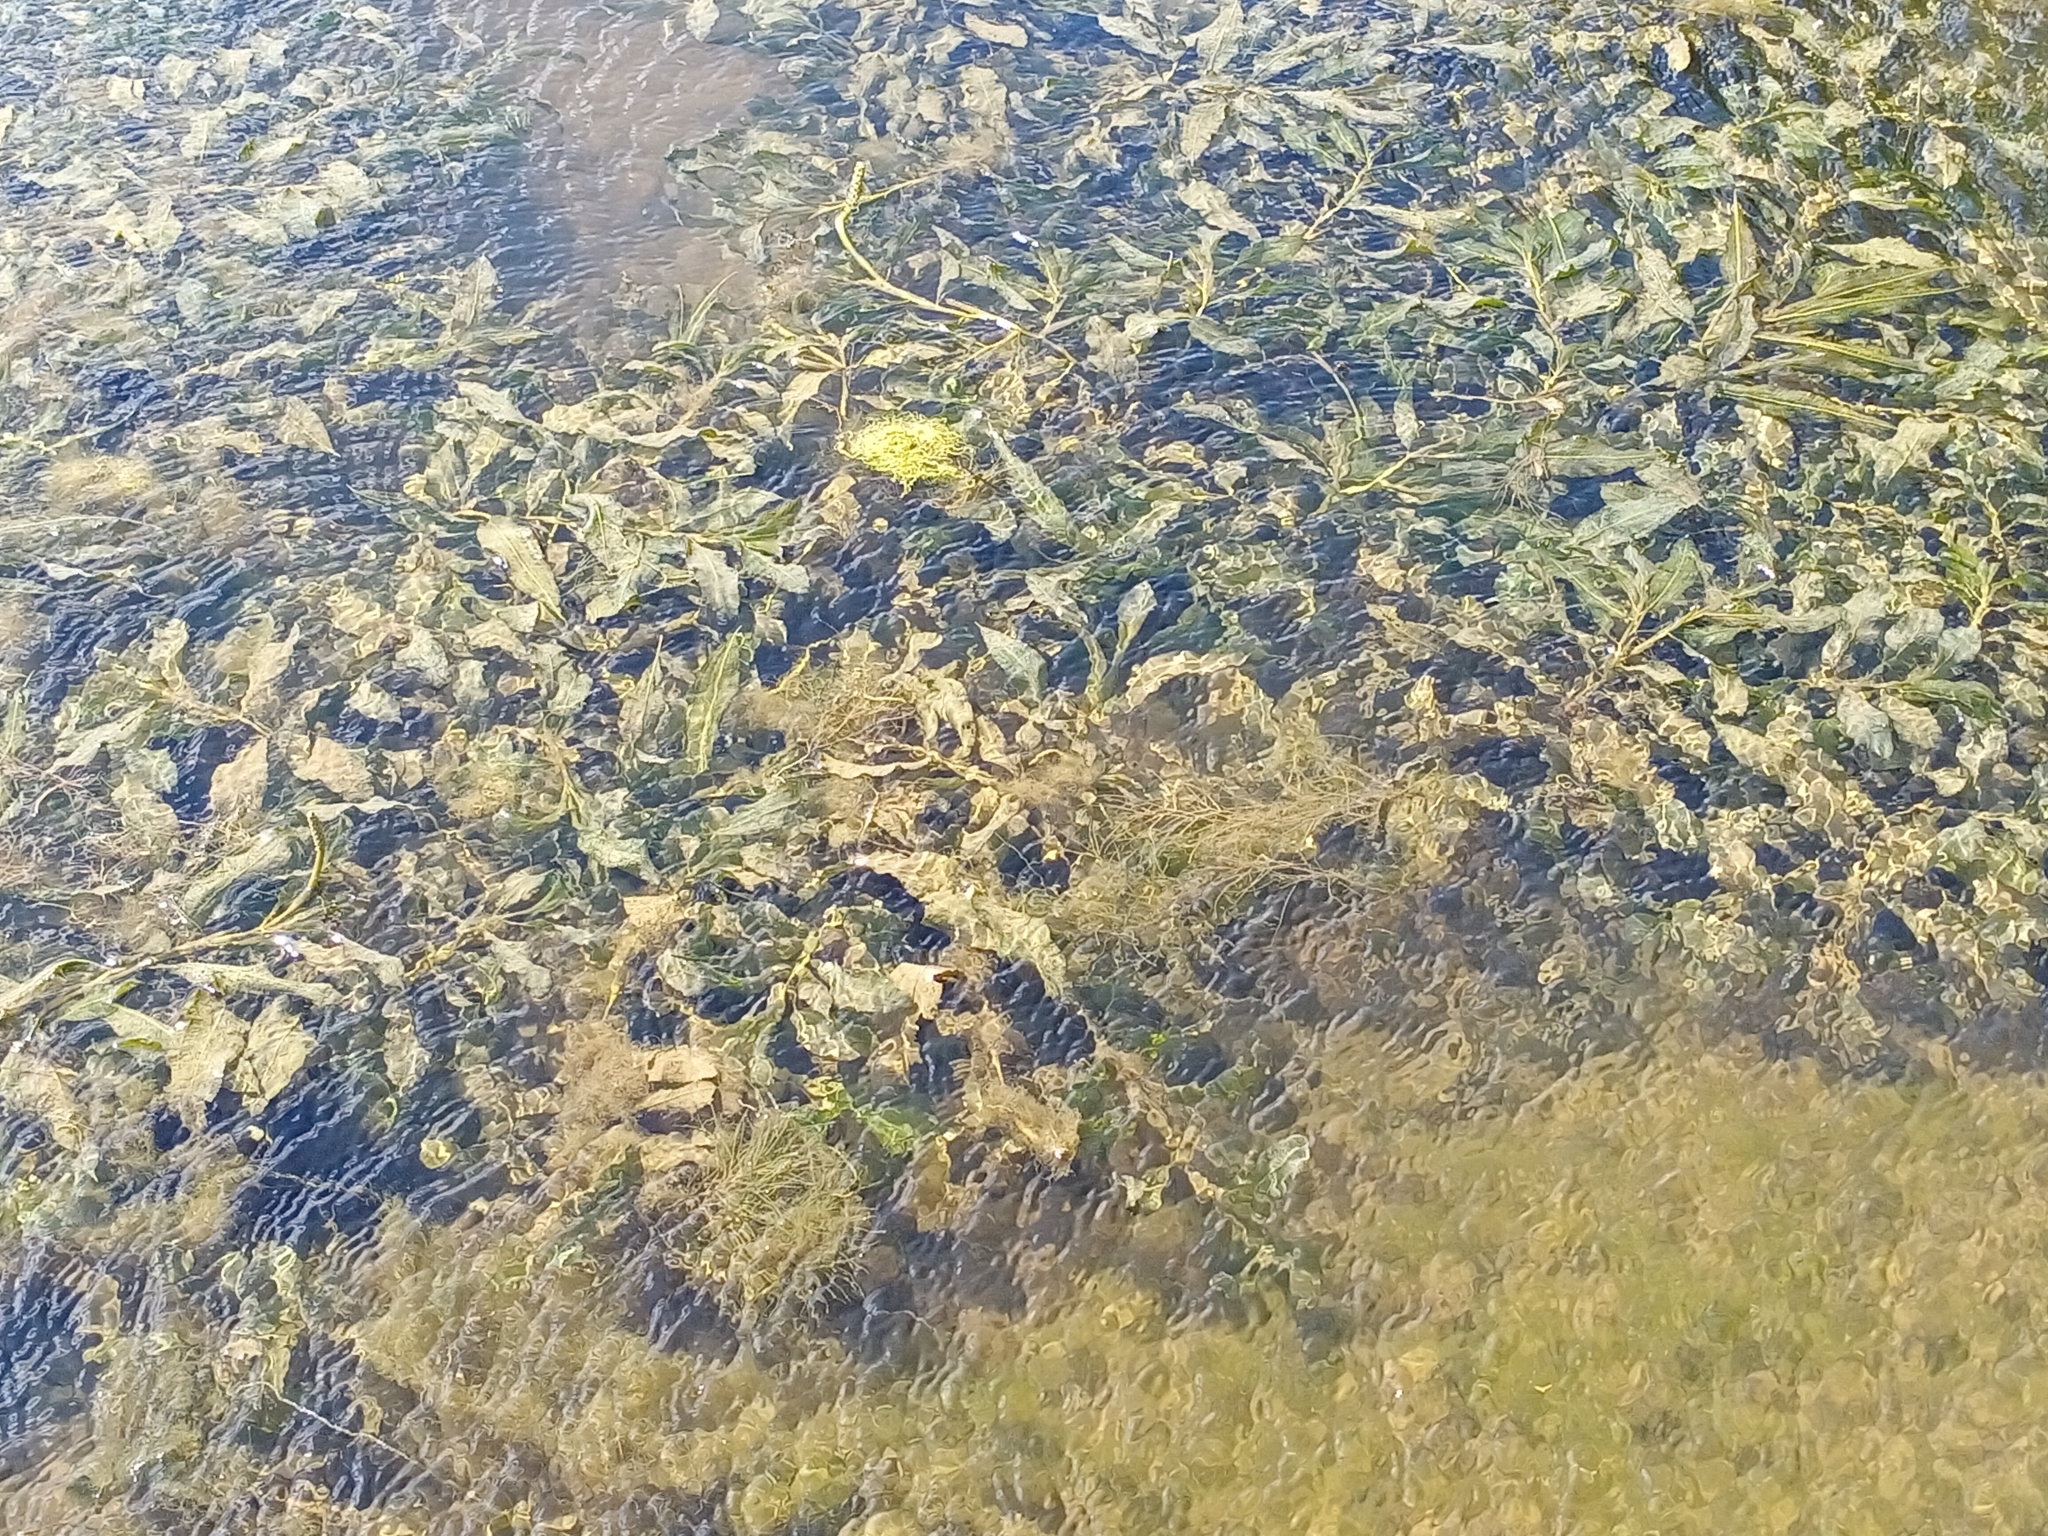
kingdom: Plantae
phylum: Tracheophyta
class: Liliopsida
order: Alismatales
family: Potamogetonaceae
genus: Potamogeton
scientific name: Potamogeton lucens
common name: Shining pondweed
